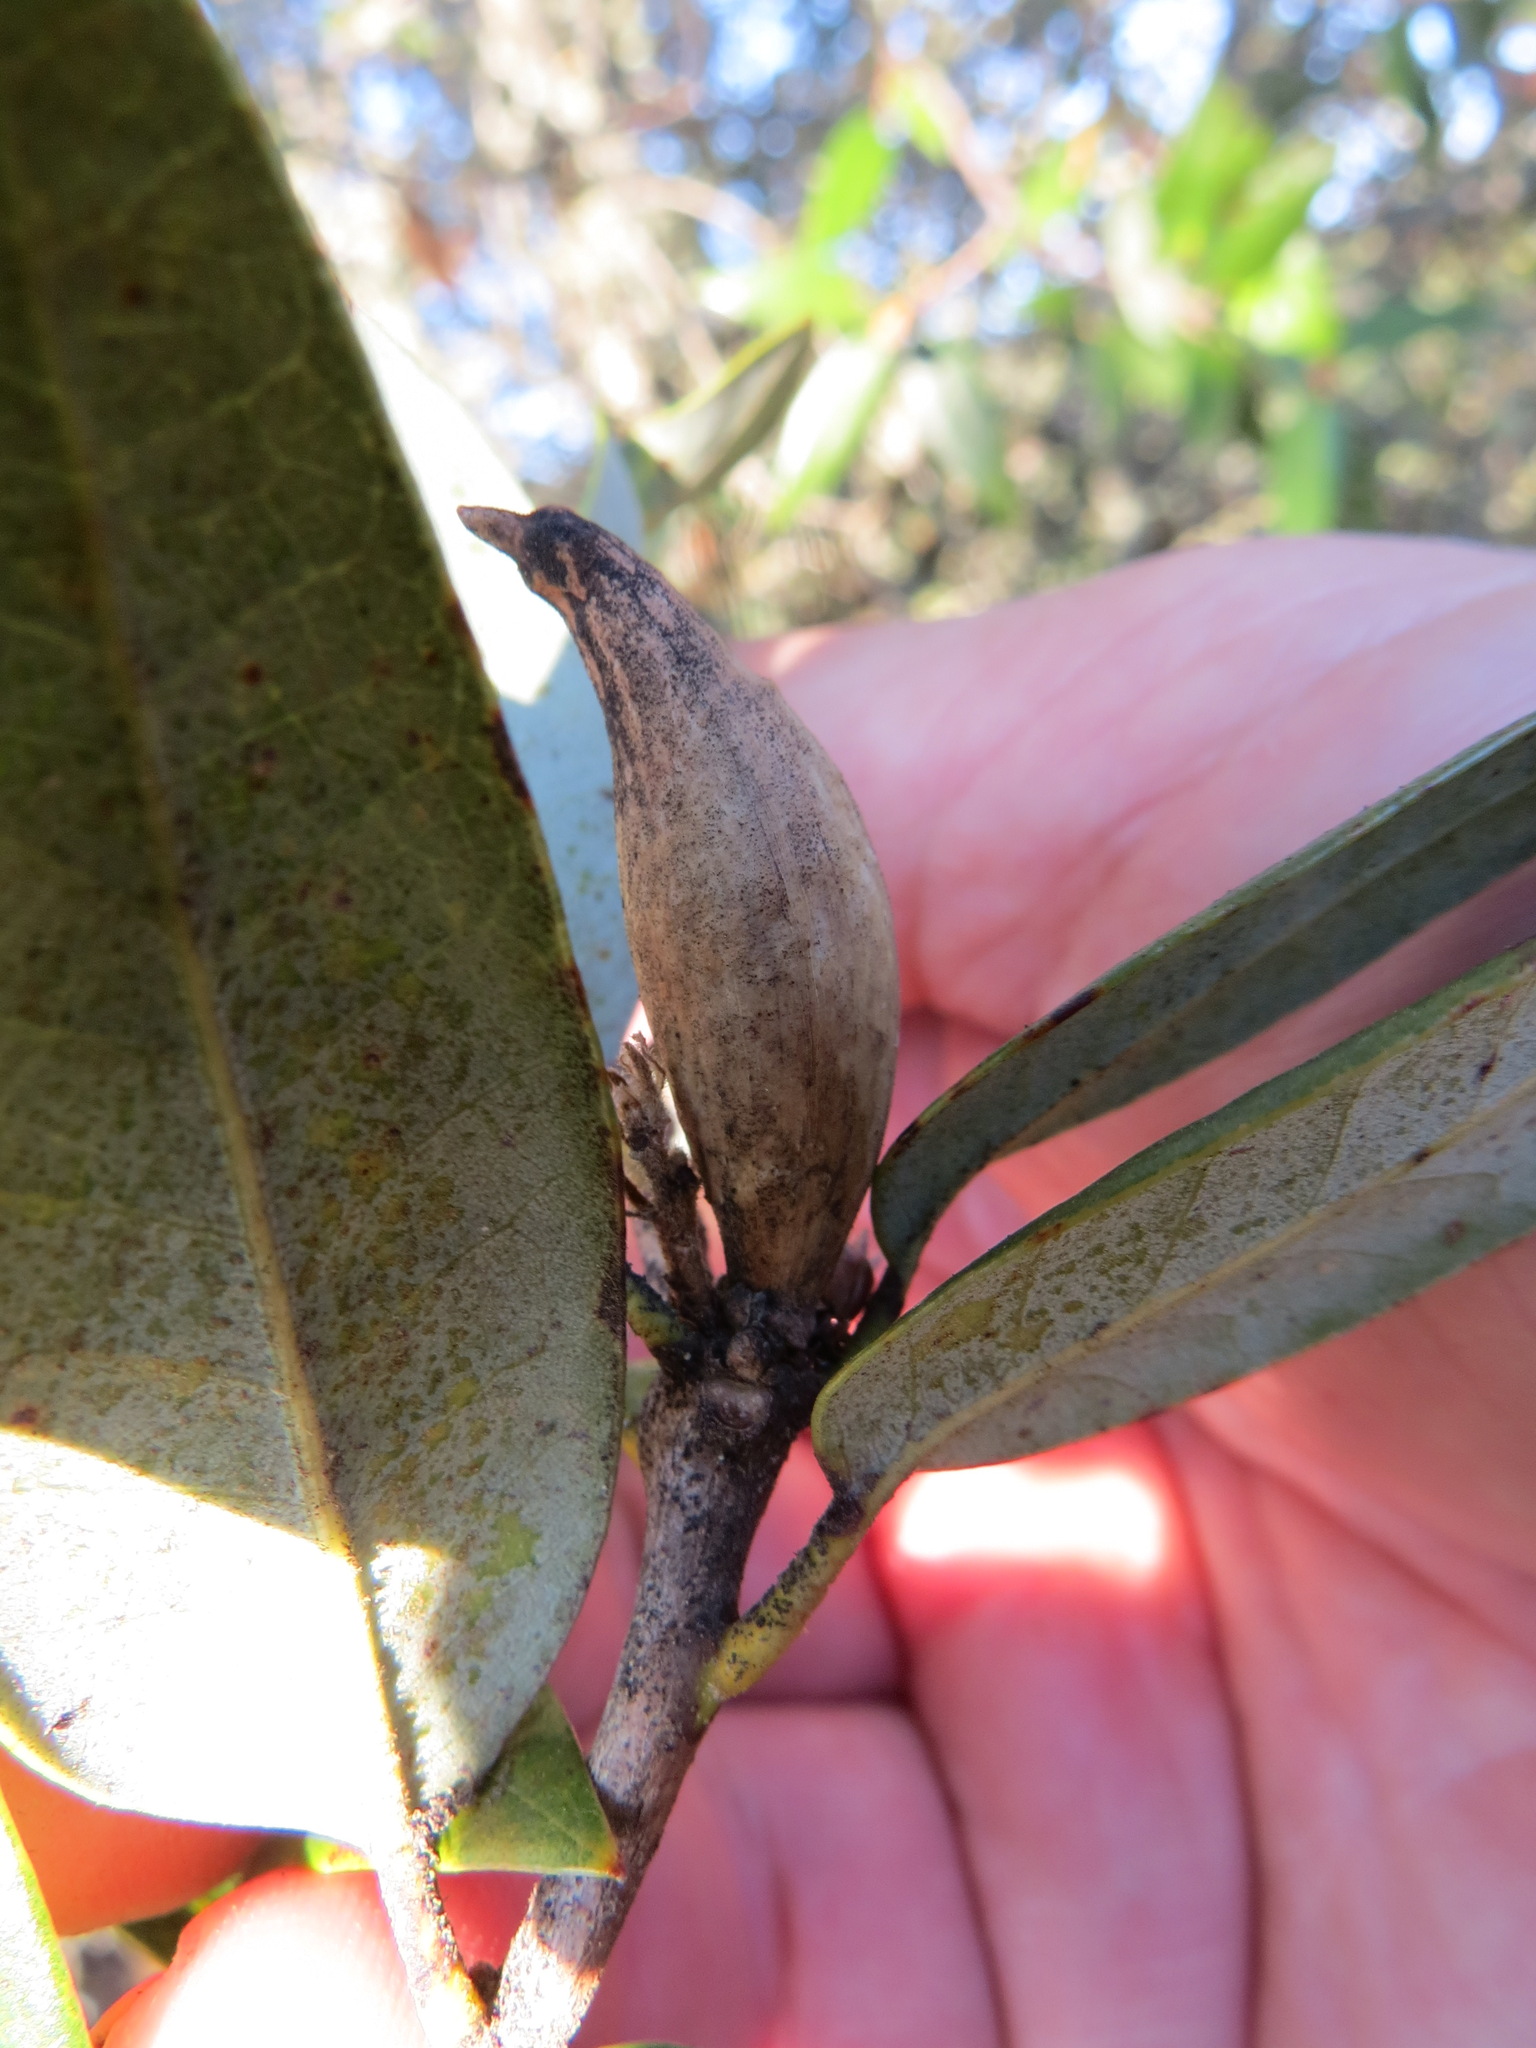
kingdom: Animalia
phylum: Arthropoda
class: Insecta
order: Hymenoptera
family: Cynipidae
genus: Heteroecus
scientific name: Heteroecus pacificus
